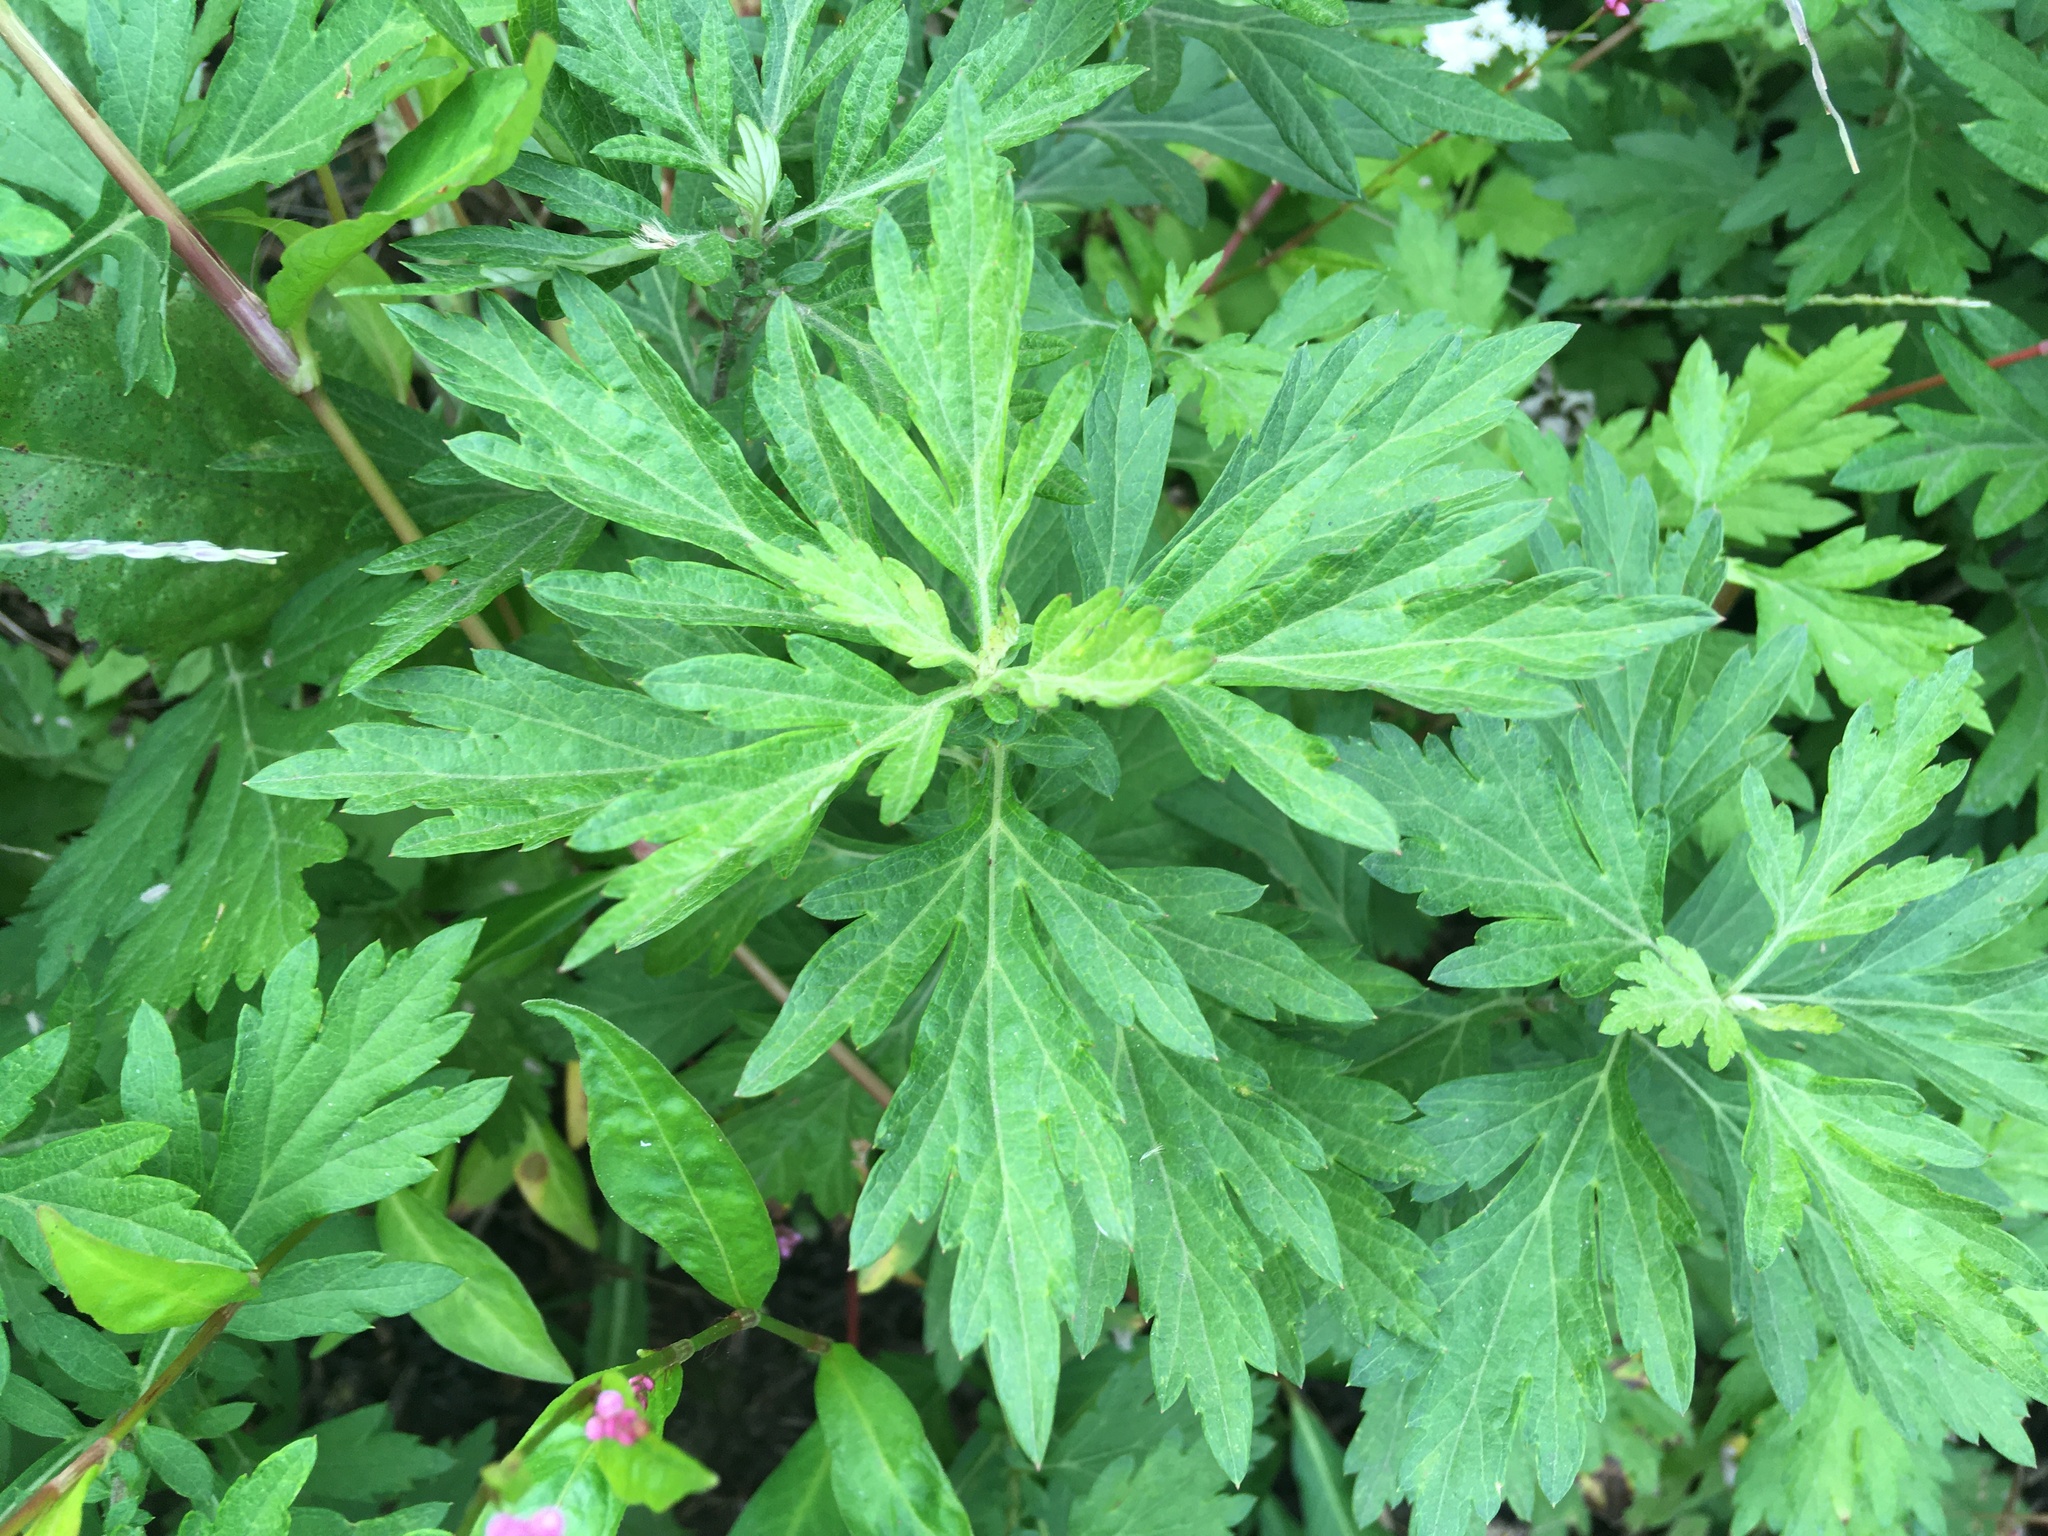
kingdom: Plantae
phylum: Tracheophyta
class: Magnoliopsida
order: Asterales
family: Asteraceae
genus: Artemisia
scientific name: Artemisia vulgaris
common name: Mugwort
